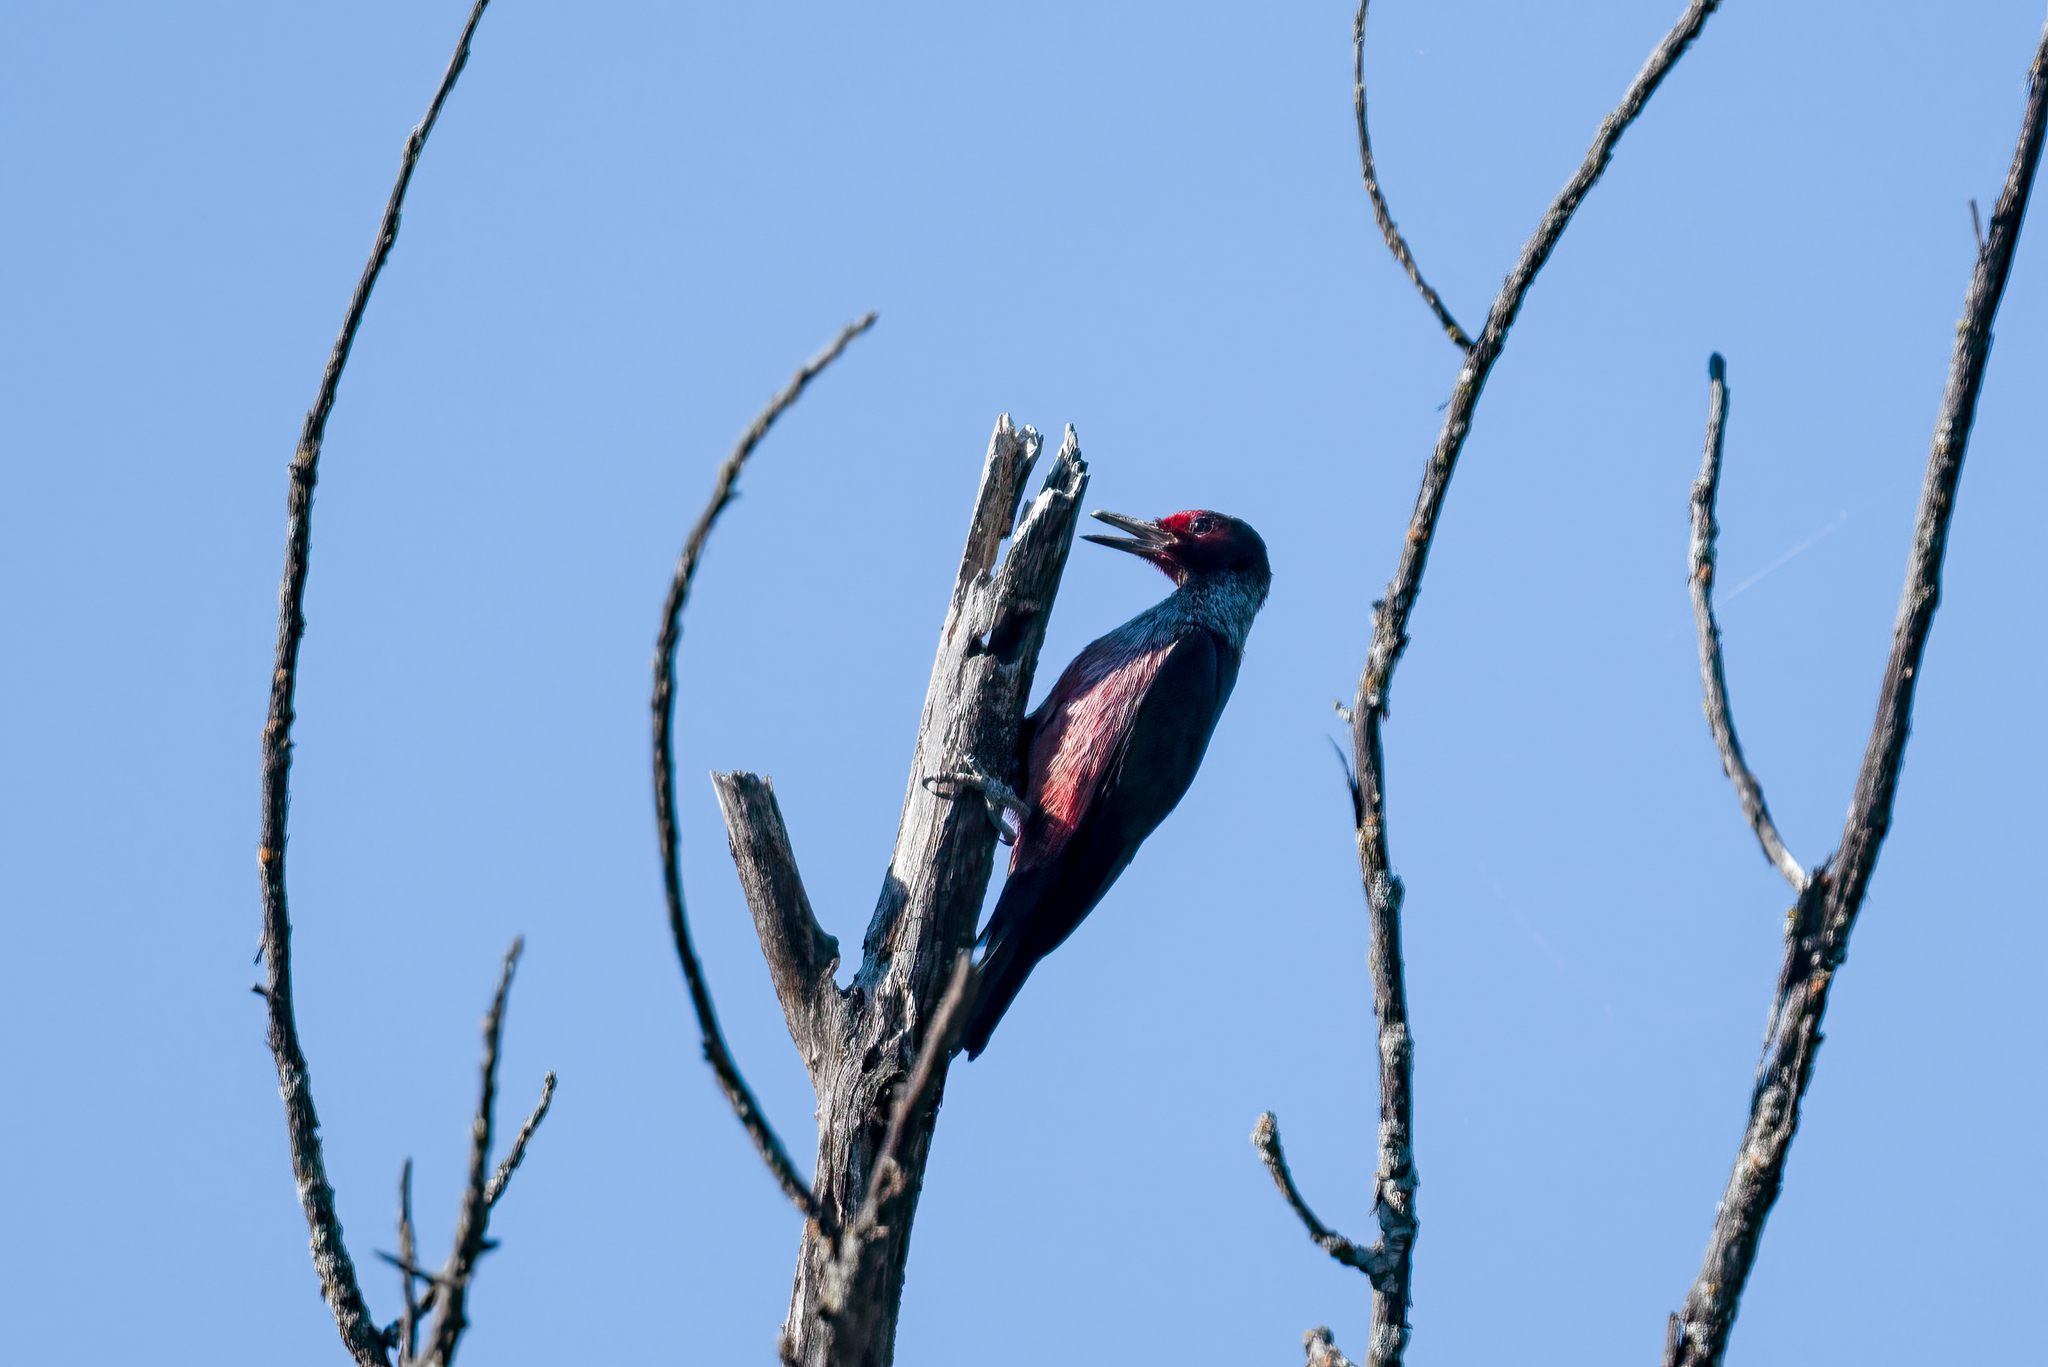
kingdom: Animalia
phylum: Chordata
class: Aves
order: Piciformes
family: Picidae
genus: Melanerpes
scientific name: Melanerpes lewis
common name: Lewis's woodpecker
